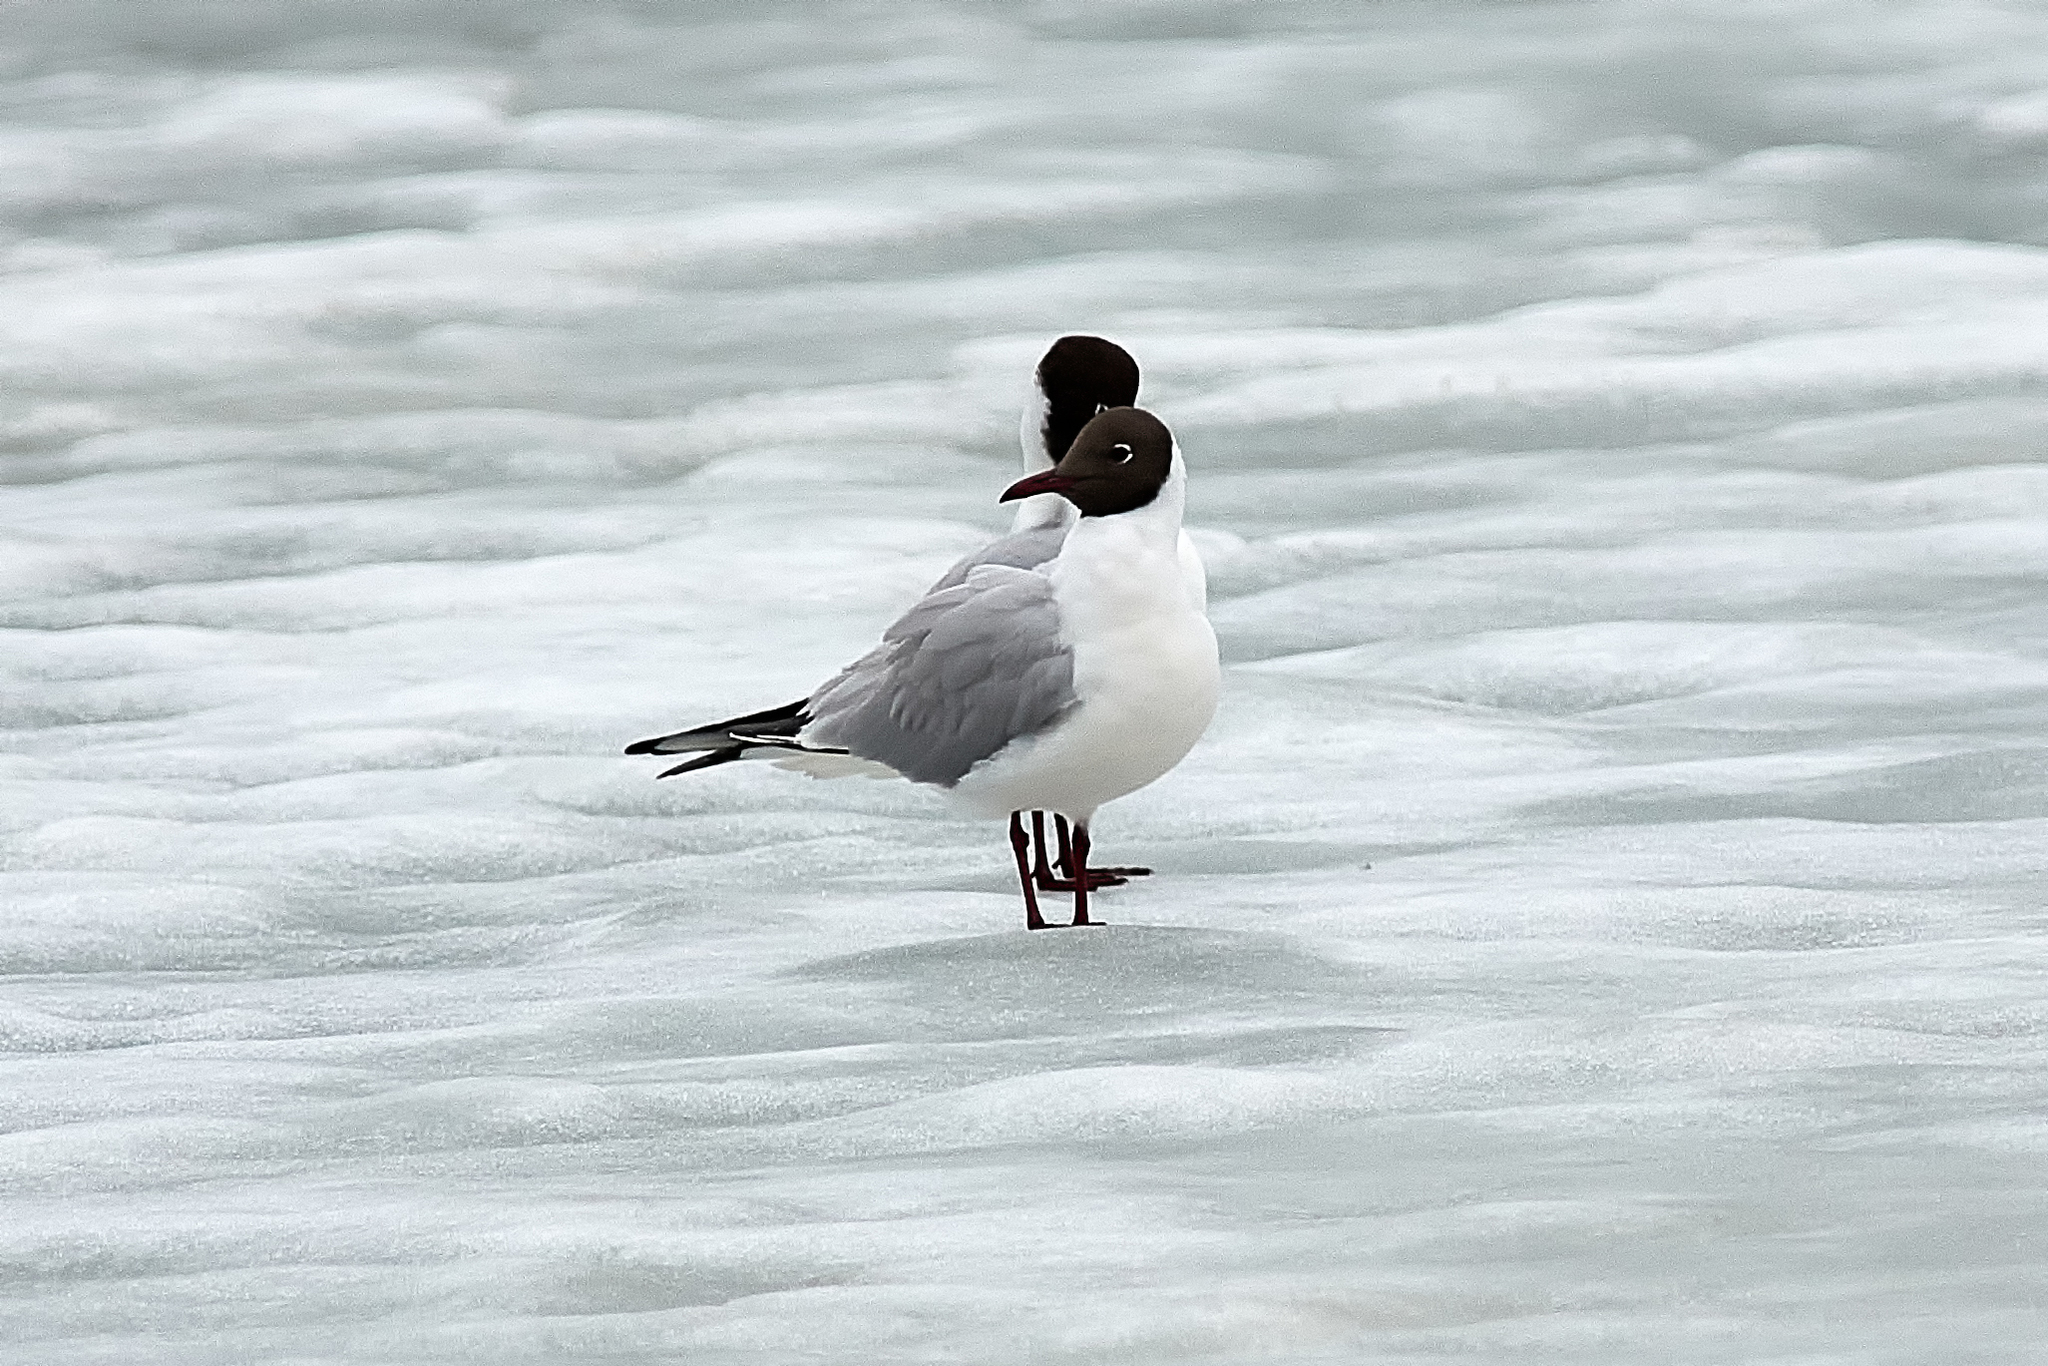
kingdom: Animalia
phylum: Chordata
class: Aves
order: Charadriiformes
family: Laridae
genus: Chroicocephalus
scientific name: Chroicocephalus ridibundus
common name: Black-headed gull
